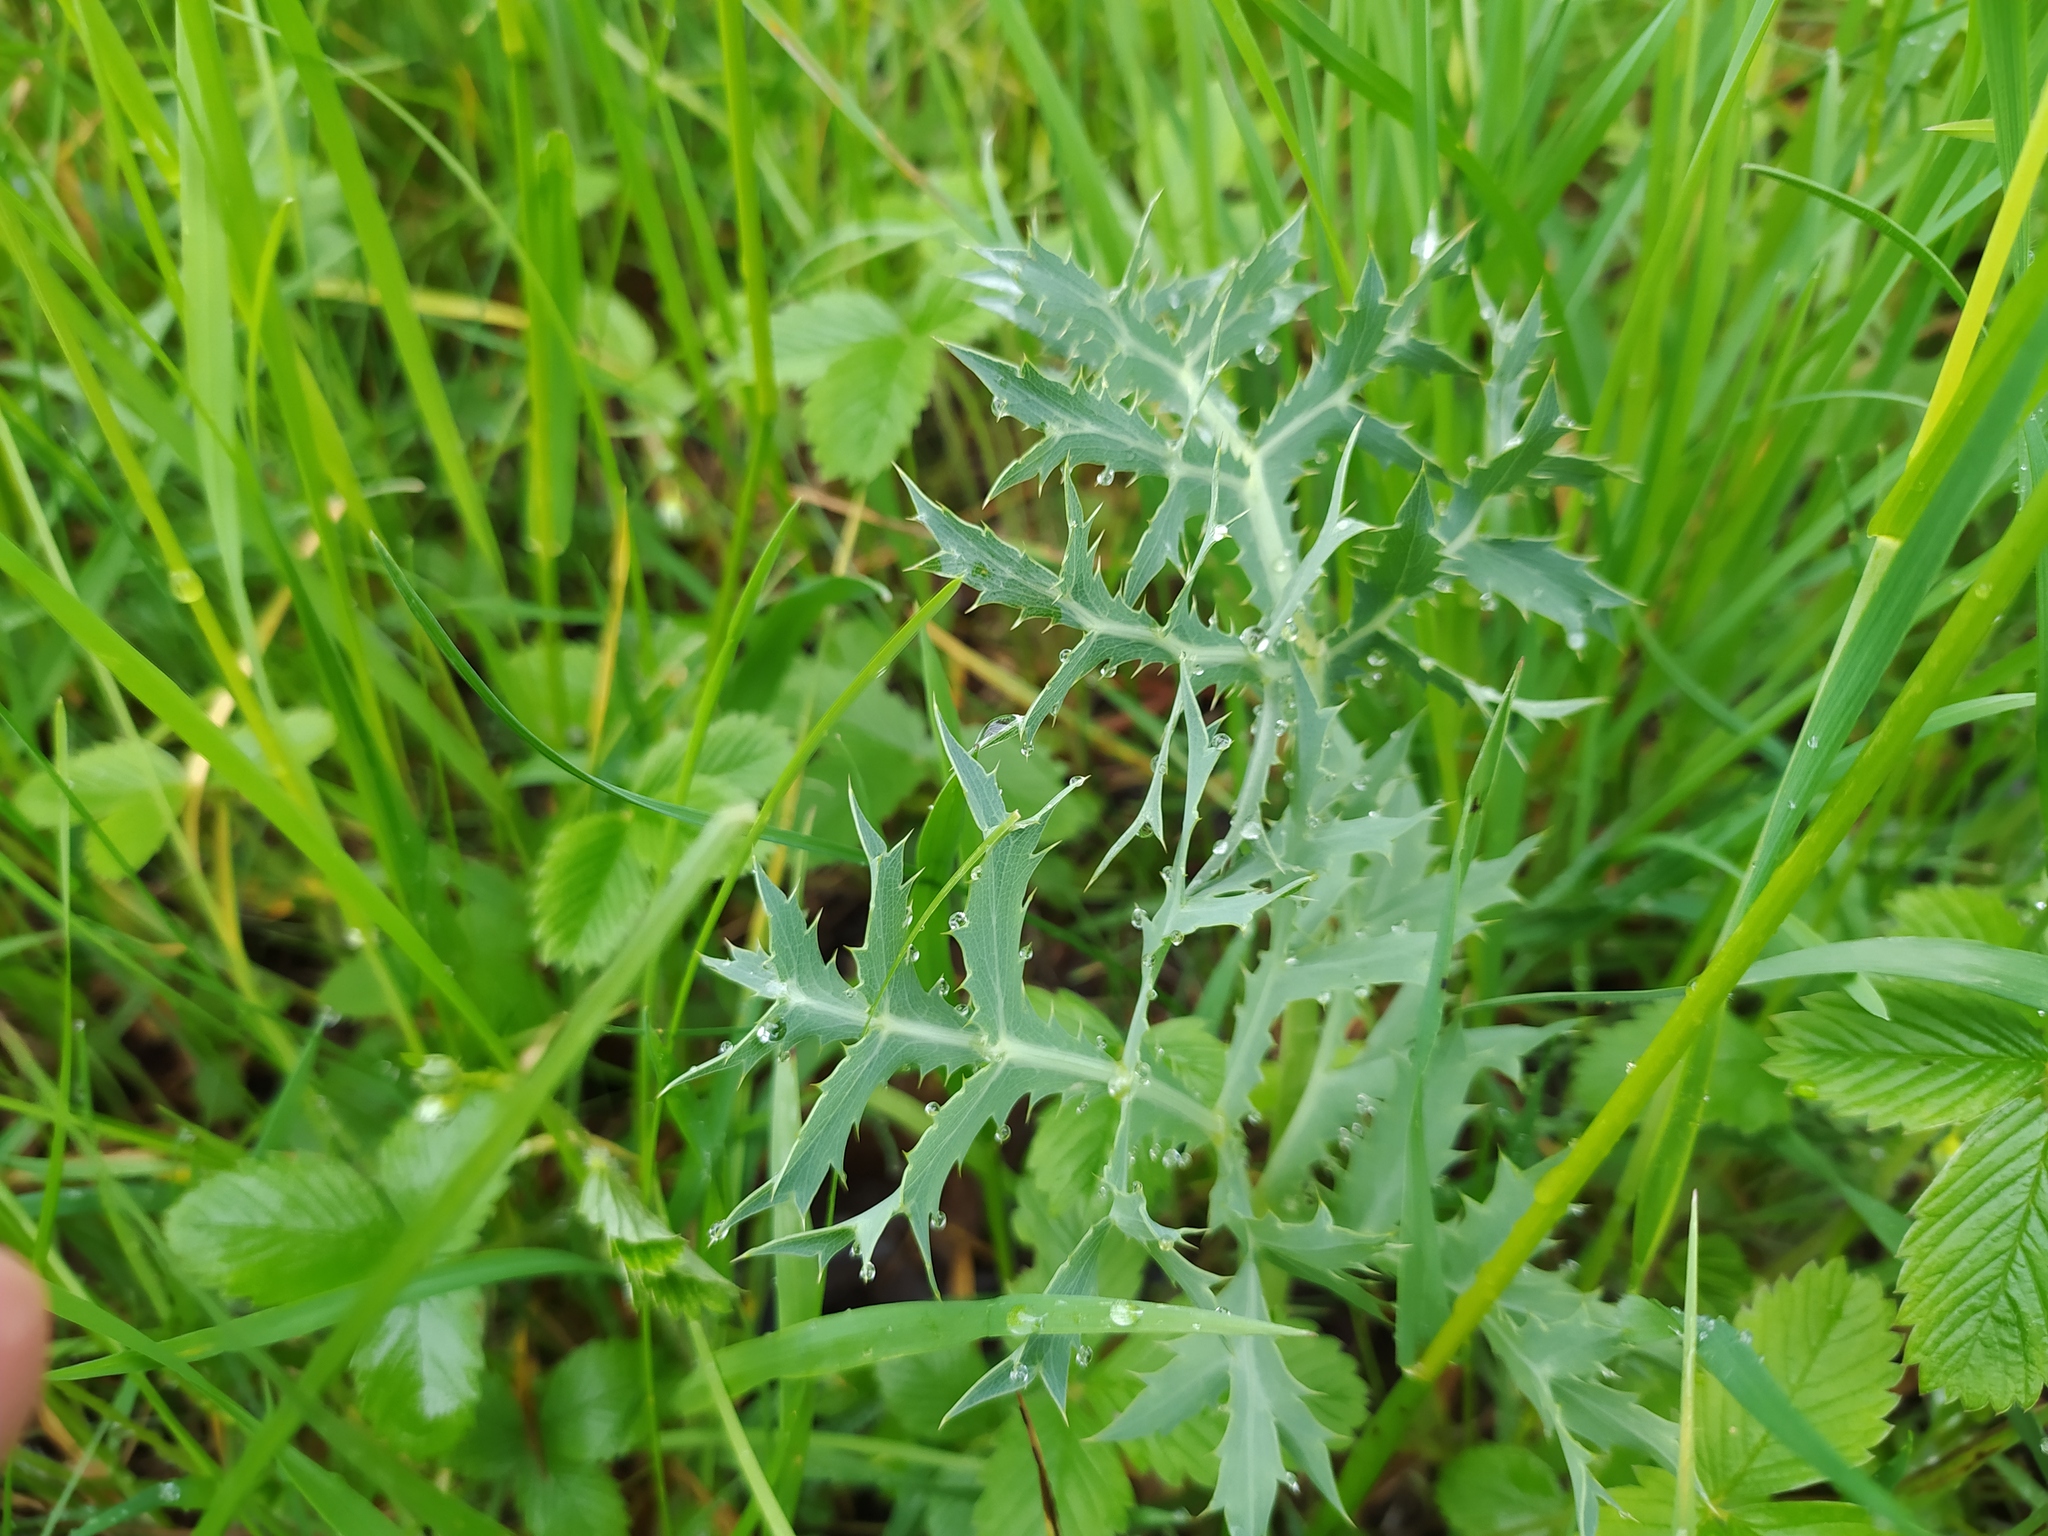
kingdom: Plantae
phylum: Tracheophyta
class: Magnoliopsida
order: Apiales
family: Apiaceae
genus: Eryngium
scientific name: Eryngium campestre
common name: Field eryngo
